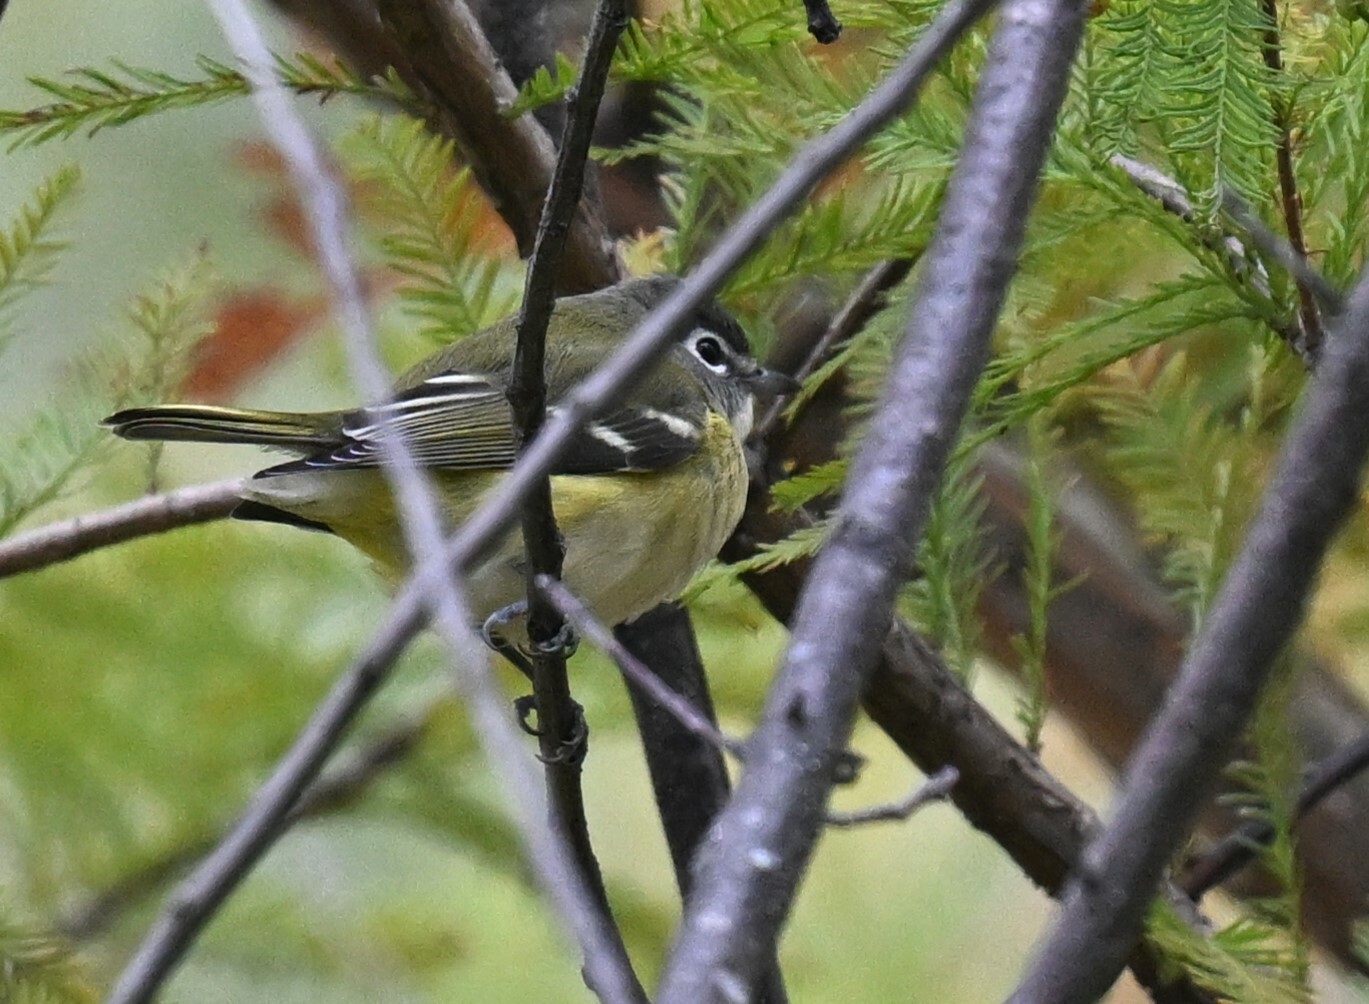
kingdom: Animalia
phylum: Chordata
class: Aves
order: Passeriformes
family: Vireonidae
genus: Vireo
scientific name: Vireo solitarius
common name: Blue-headed vireo
